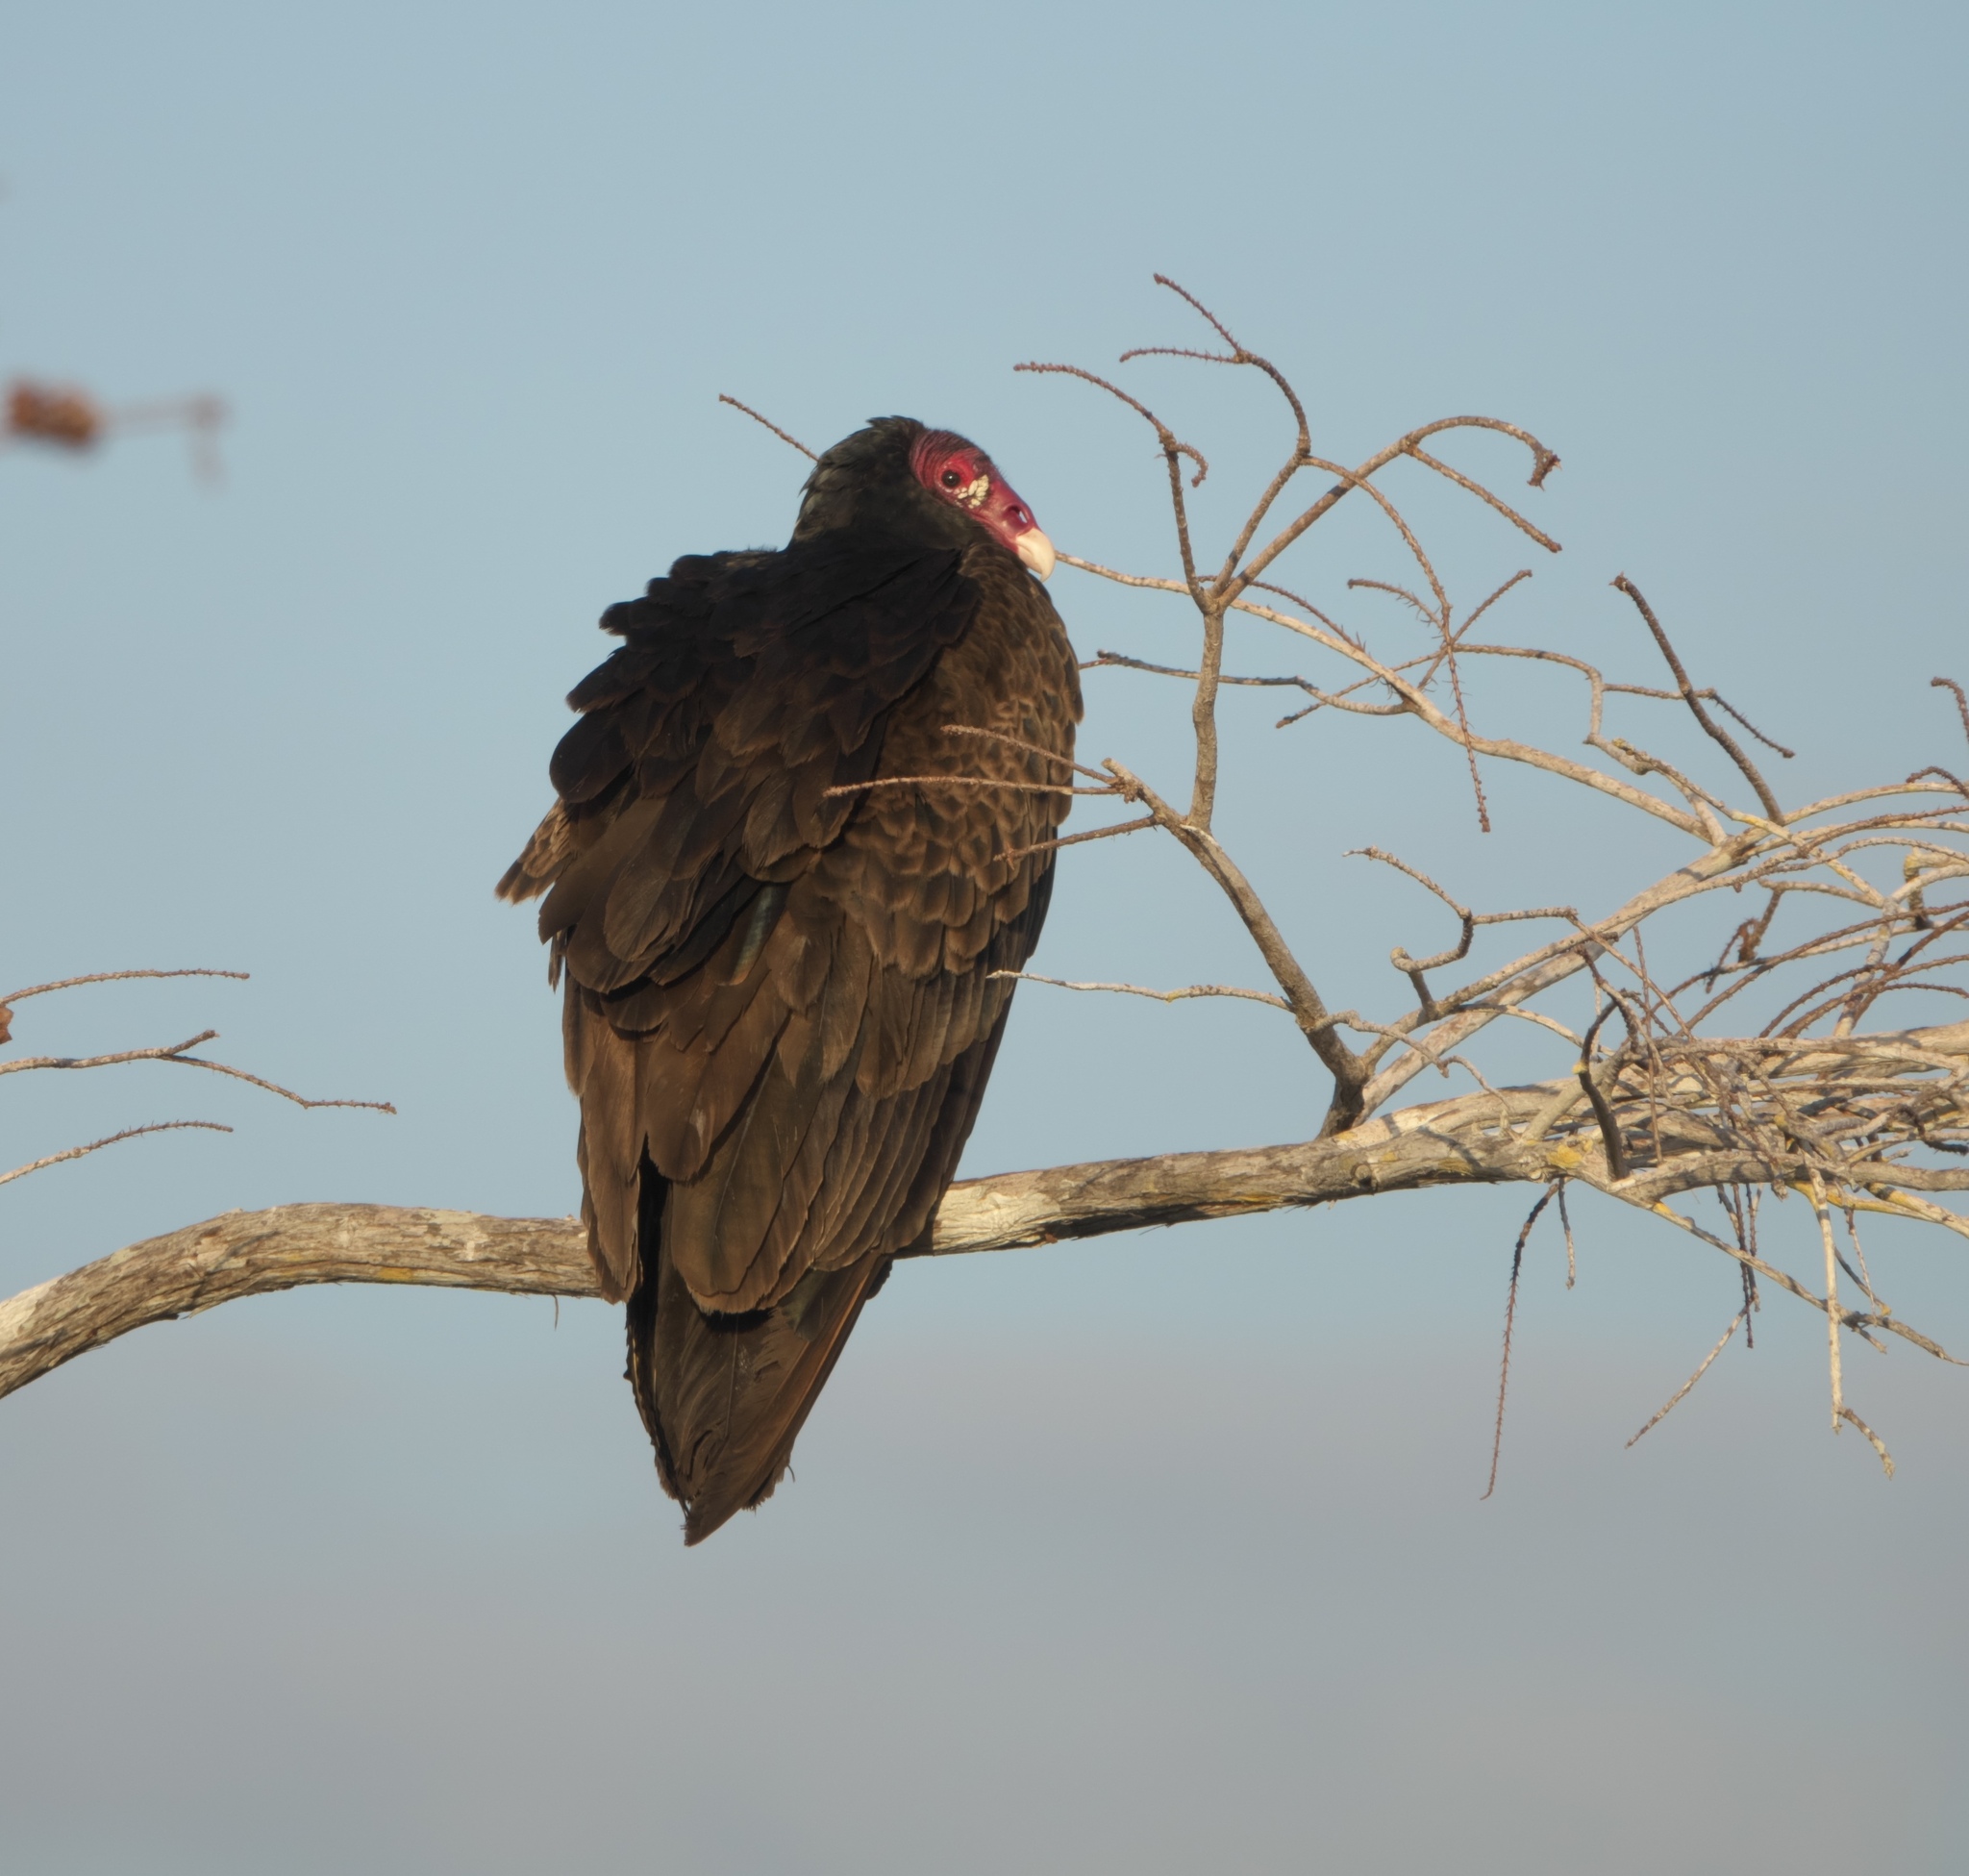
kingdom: Animalia
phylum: Chordata
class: Aves
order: Accipitriformes
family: Cathartidae
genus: Cathartes
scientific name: Cathartes aura
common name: Turkey vulture
